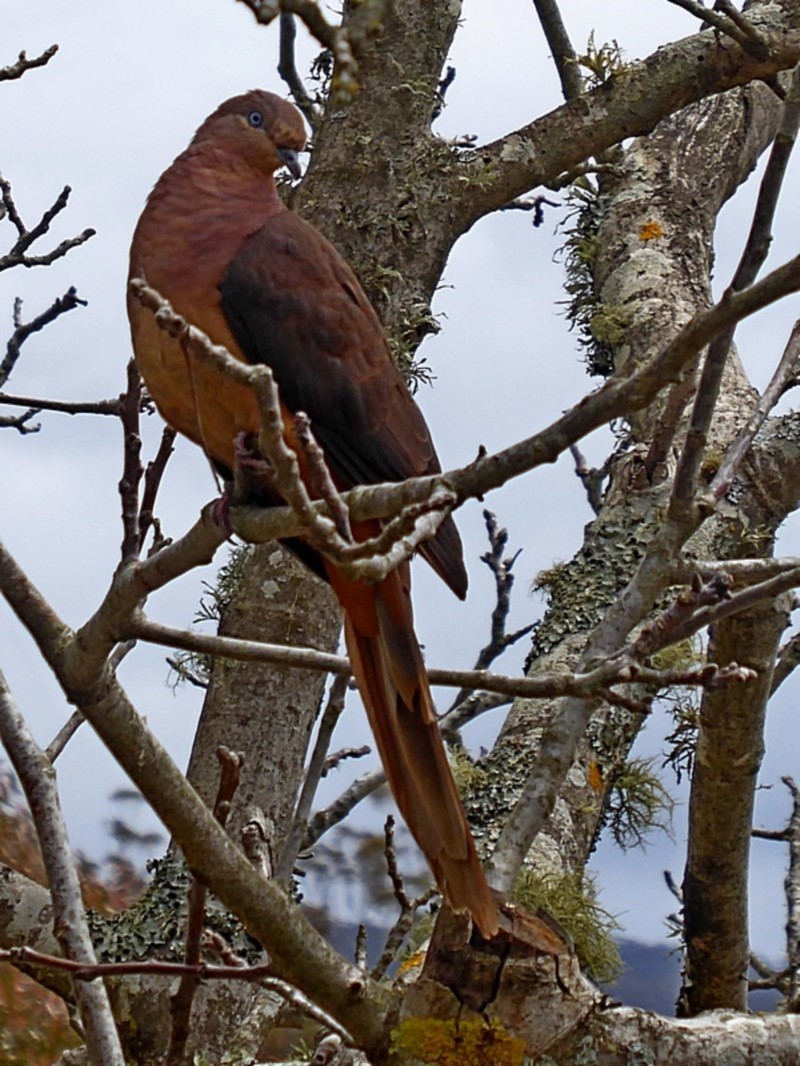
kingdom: Animalia
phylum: Chordata
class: Aves
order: Columbiformes
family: Columbidae
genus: Macropygia
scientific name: Macropygia phasianella
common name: Brown cuckoo-dove
